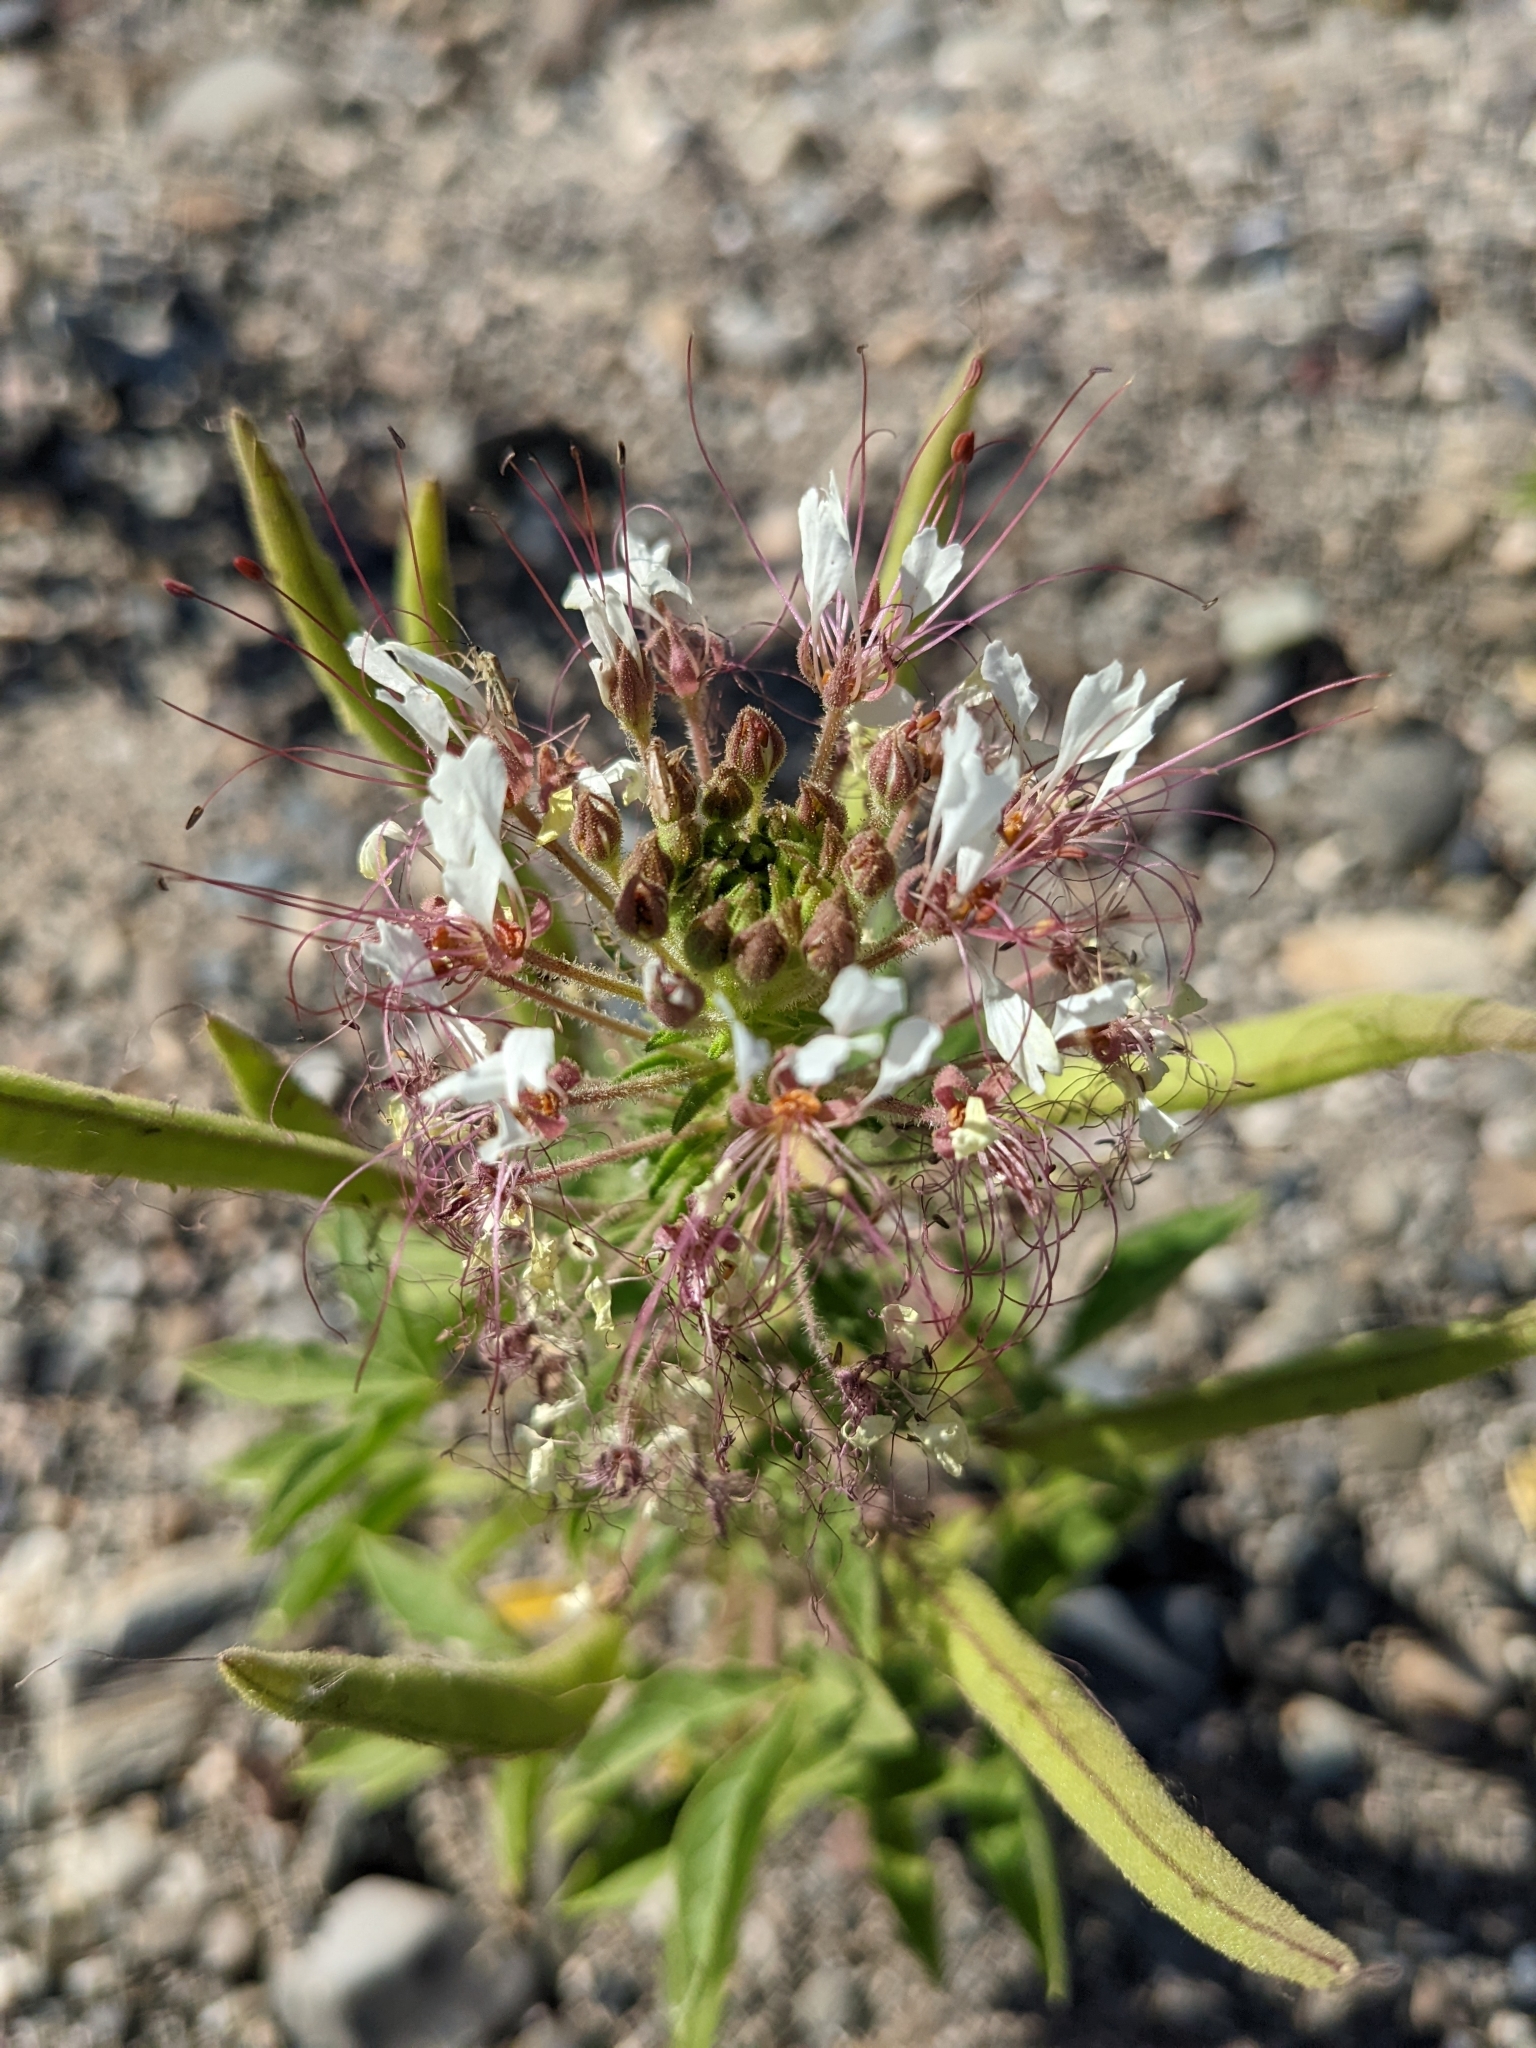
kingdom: Plantae
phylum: Tracheophyta
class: Magnoliopsida
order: Brassicales
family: Cleomaceae
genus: Polanisia
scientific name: Polanisia dodecandra
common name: Clammyweed
